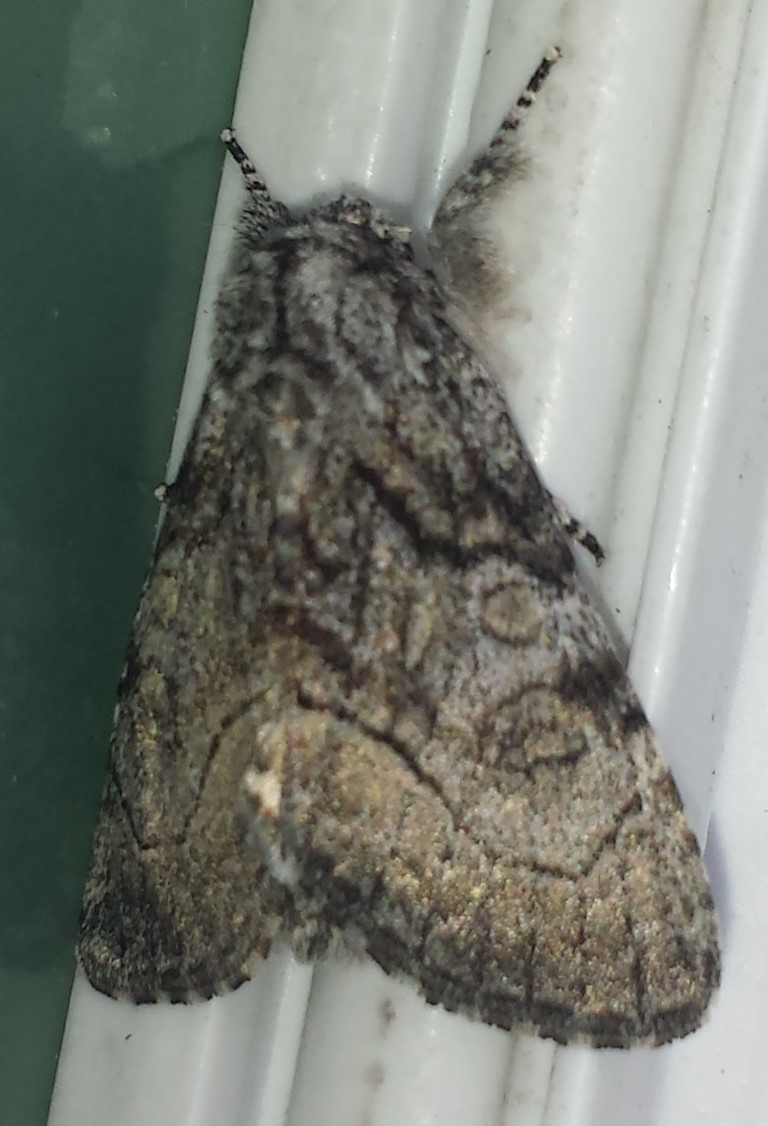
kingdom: Animalia
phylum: Arthropoda
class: Insecta
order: Lepidoptera
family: Noctuidae
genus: Raphia
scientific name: Raphia frater
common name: Brother
